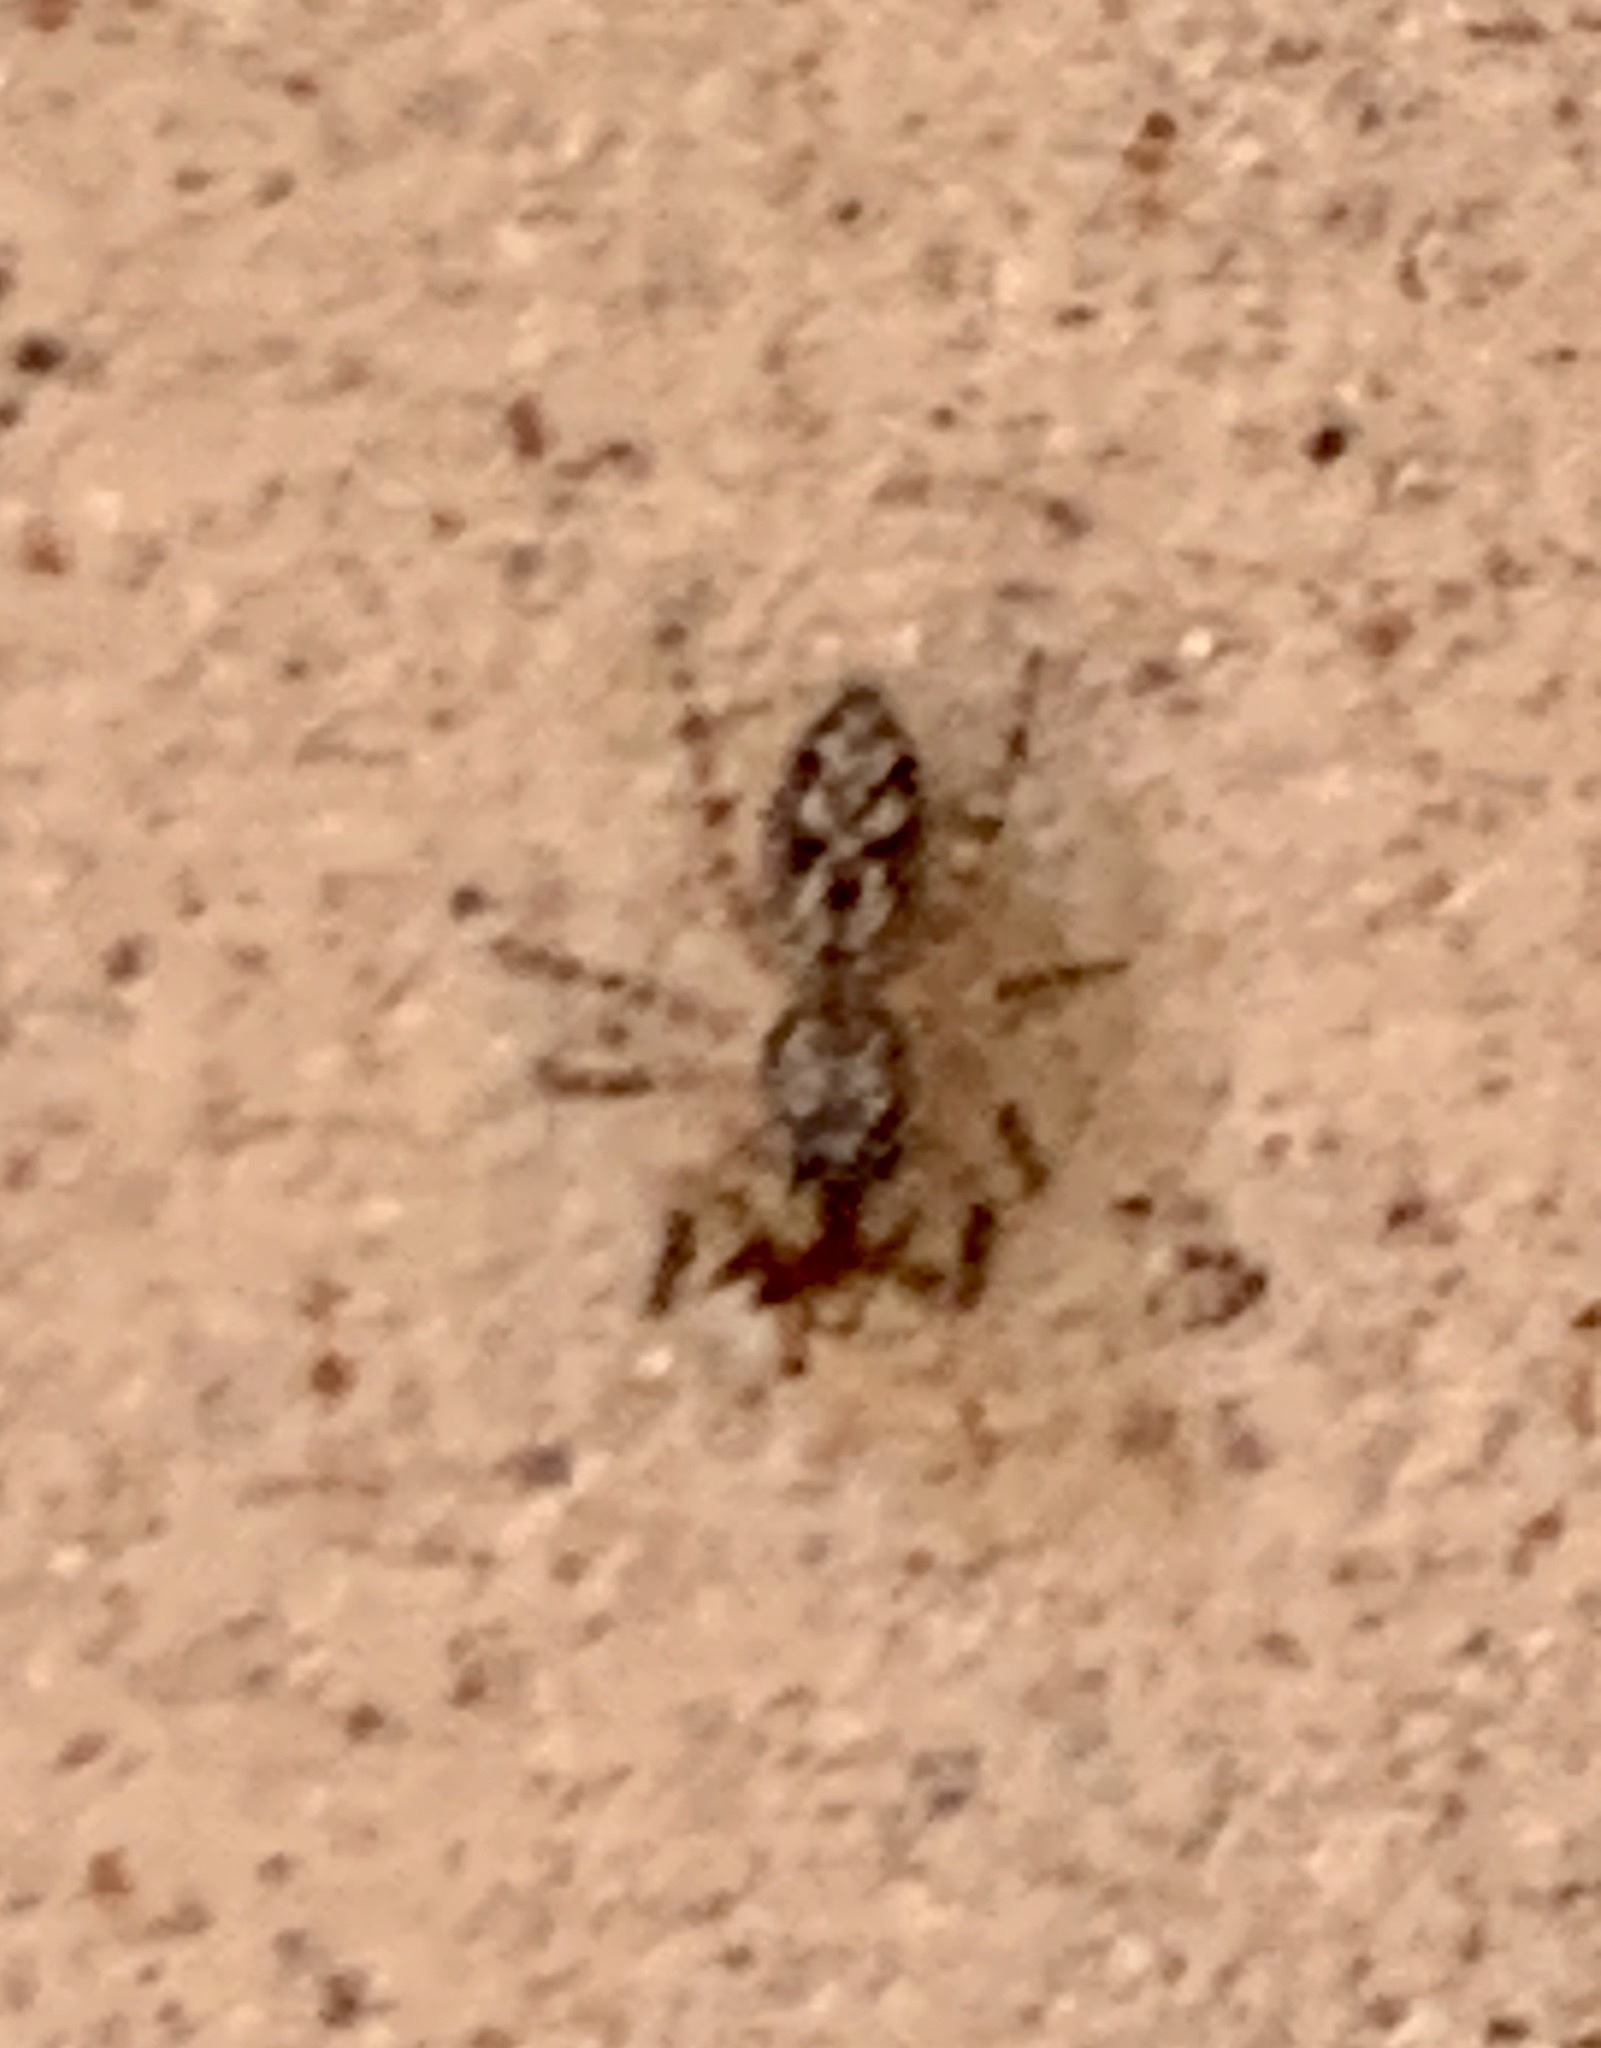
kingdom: Animalia
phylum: Arthropoda
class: Arachnida
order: Araneae
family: Salticidae
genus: Platycryptus
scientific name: Platycryptus undatus
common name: Tan jumping spider
